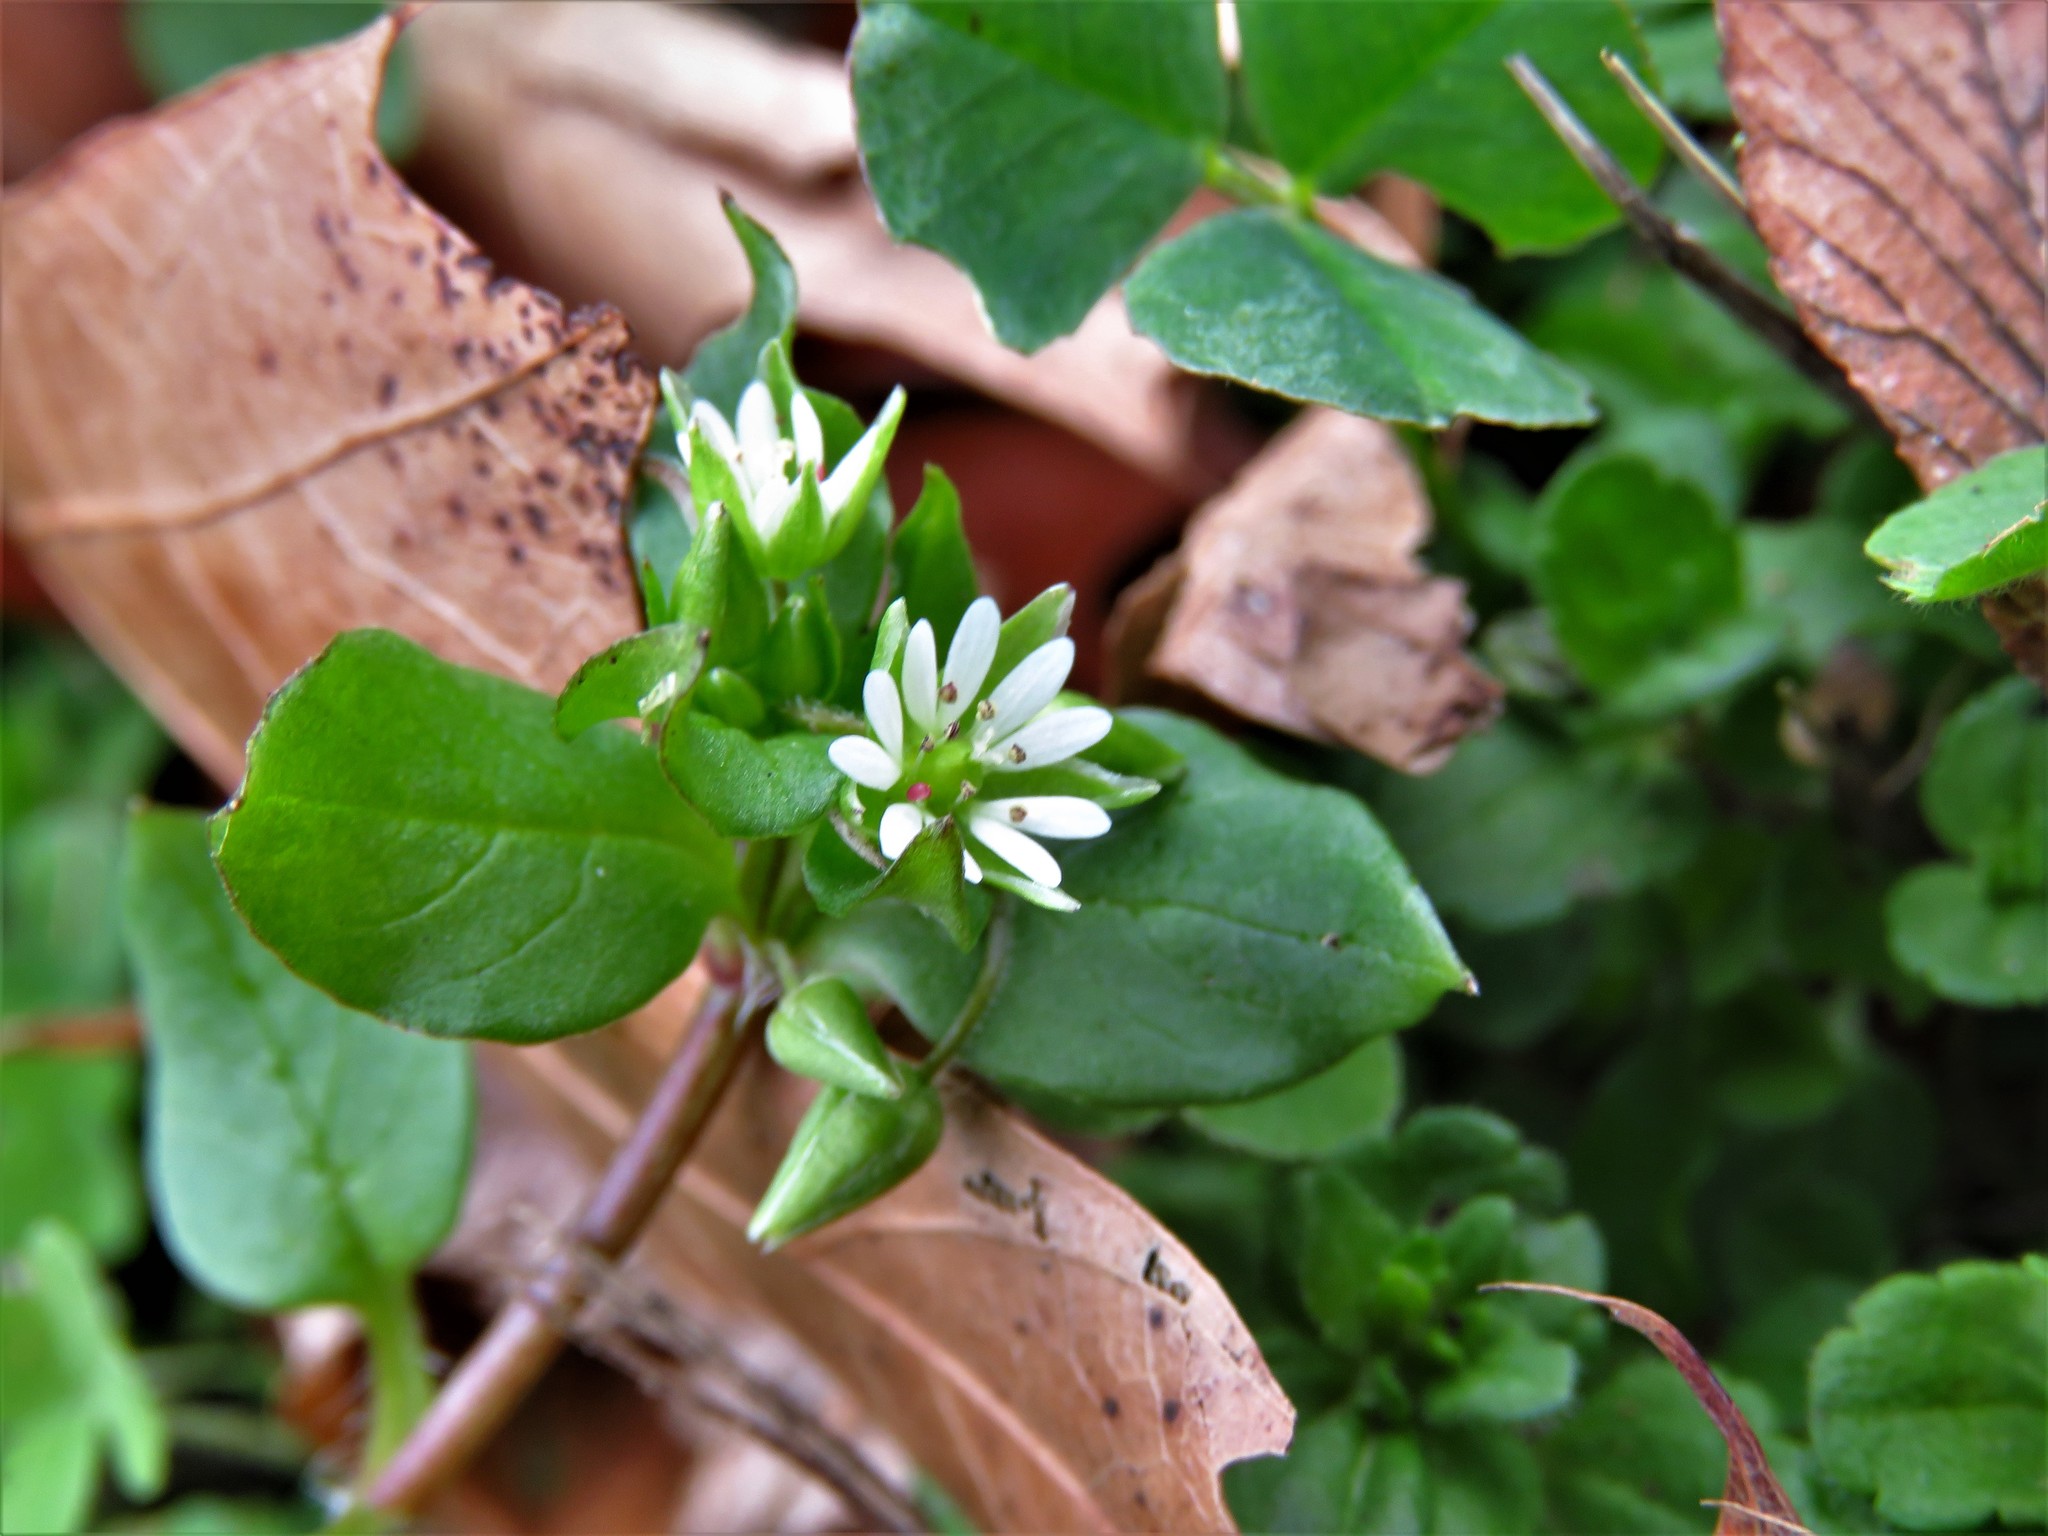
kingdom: Plantae
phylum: Tracheophyta
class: Magnoliopsida
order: Caryophyllales
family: Caryophyllaceae
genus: Stellaria
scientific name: Stellaria media
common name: Common chickweed
